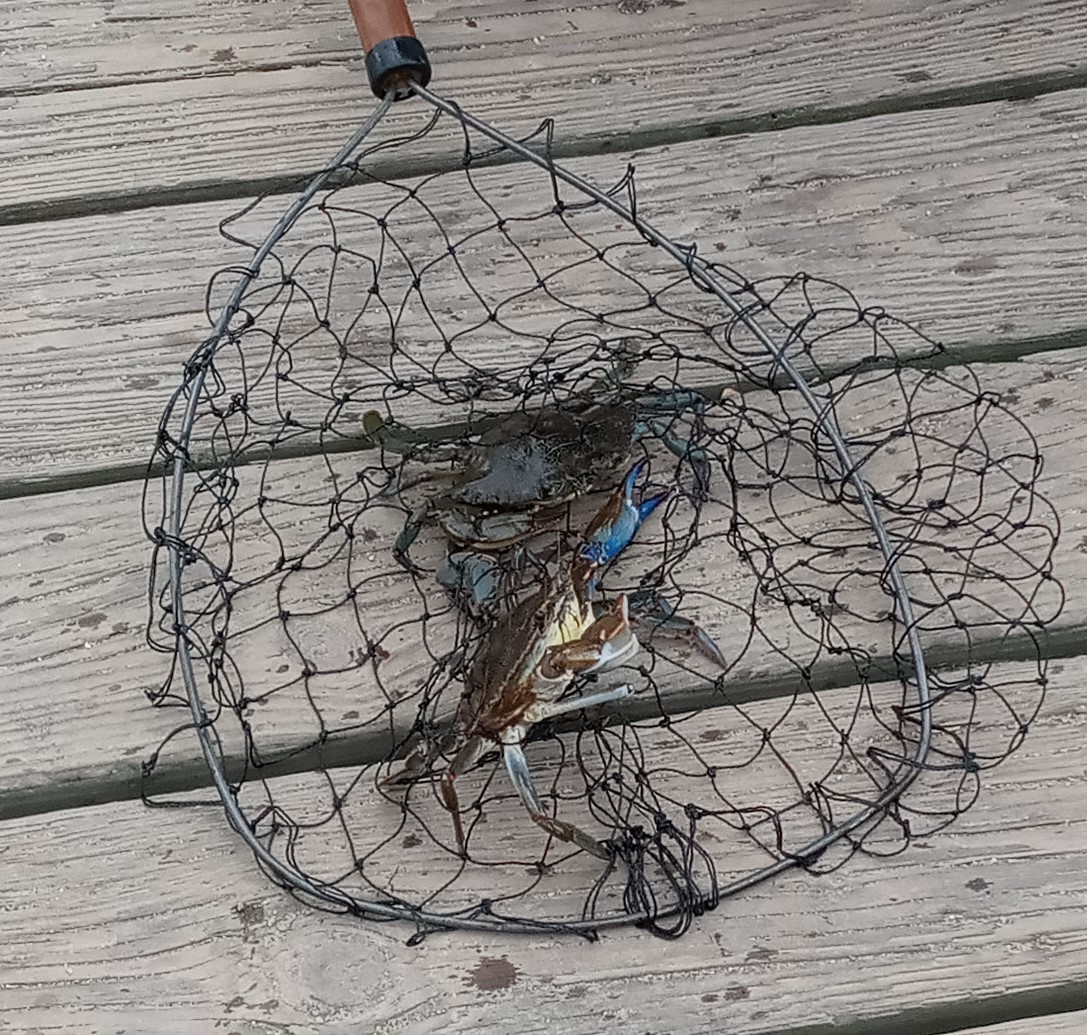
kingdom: Animalia
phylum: Arthropoda
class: Malacostraca
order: Decapoda
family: Portunidae
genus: Callinectes
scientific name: Callinectes sapidus
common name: Blue crab
